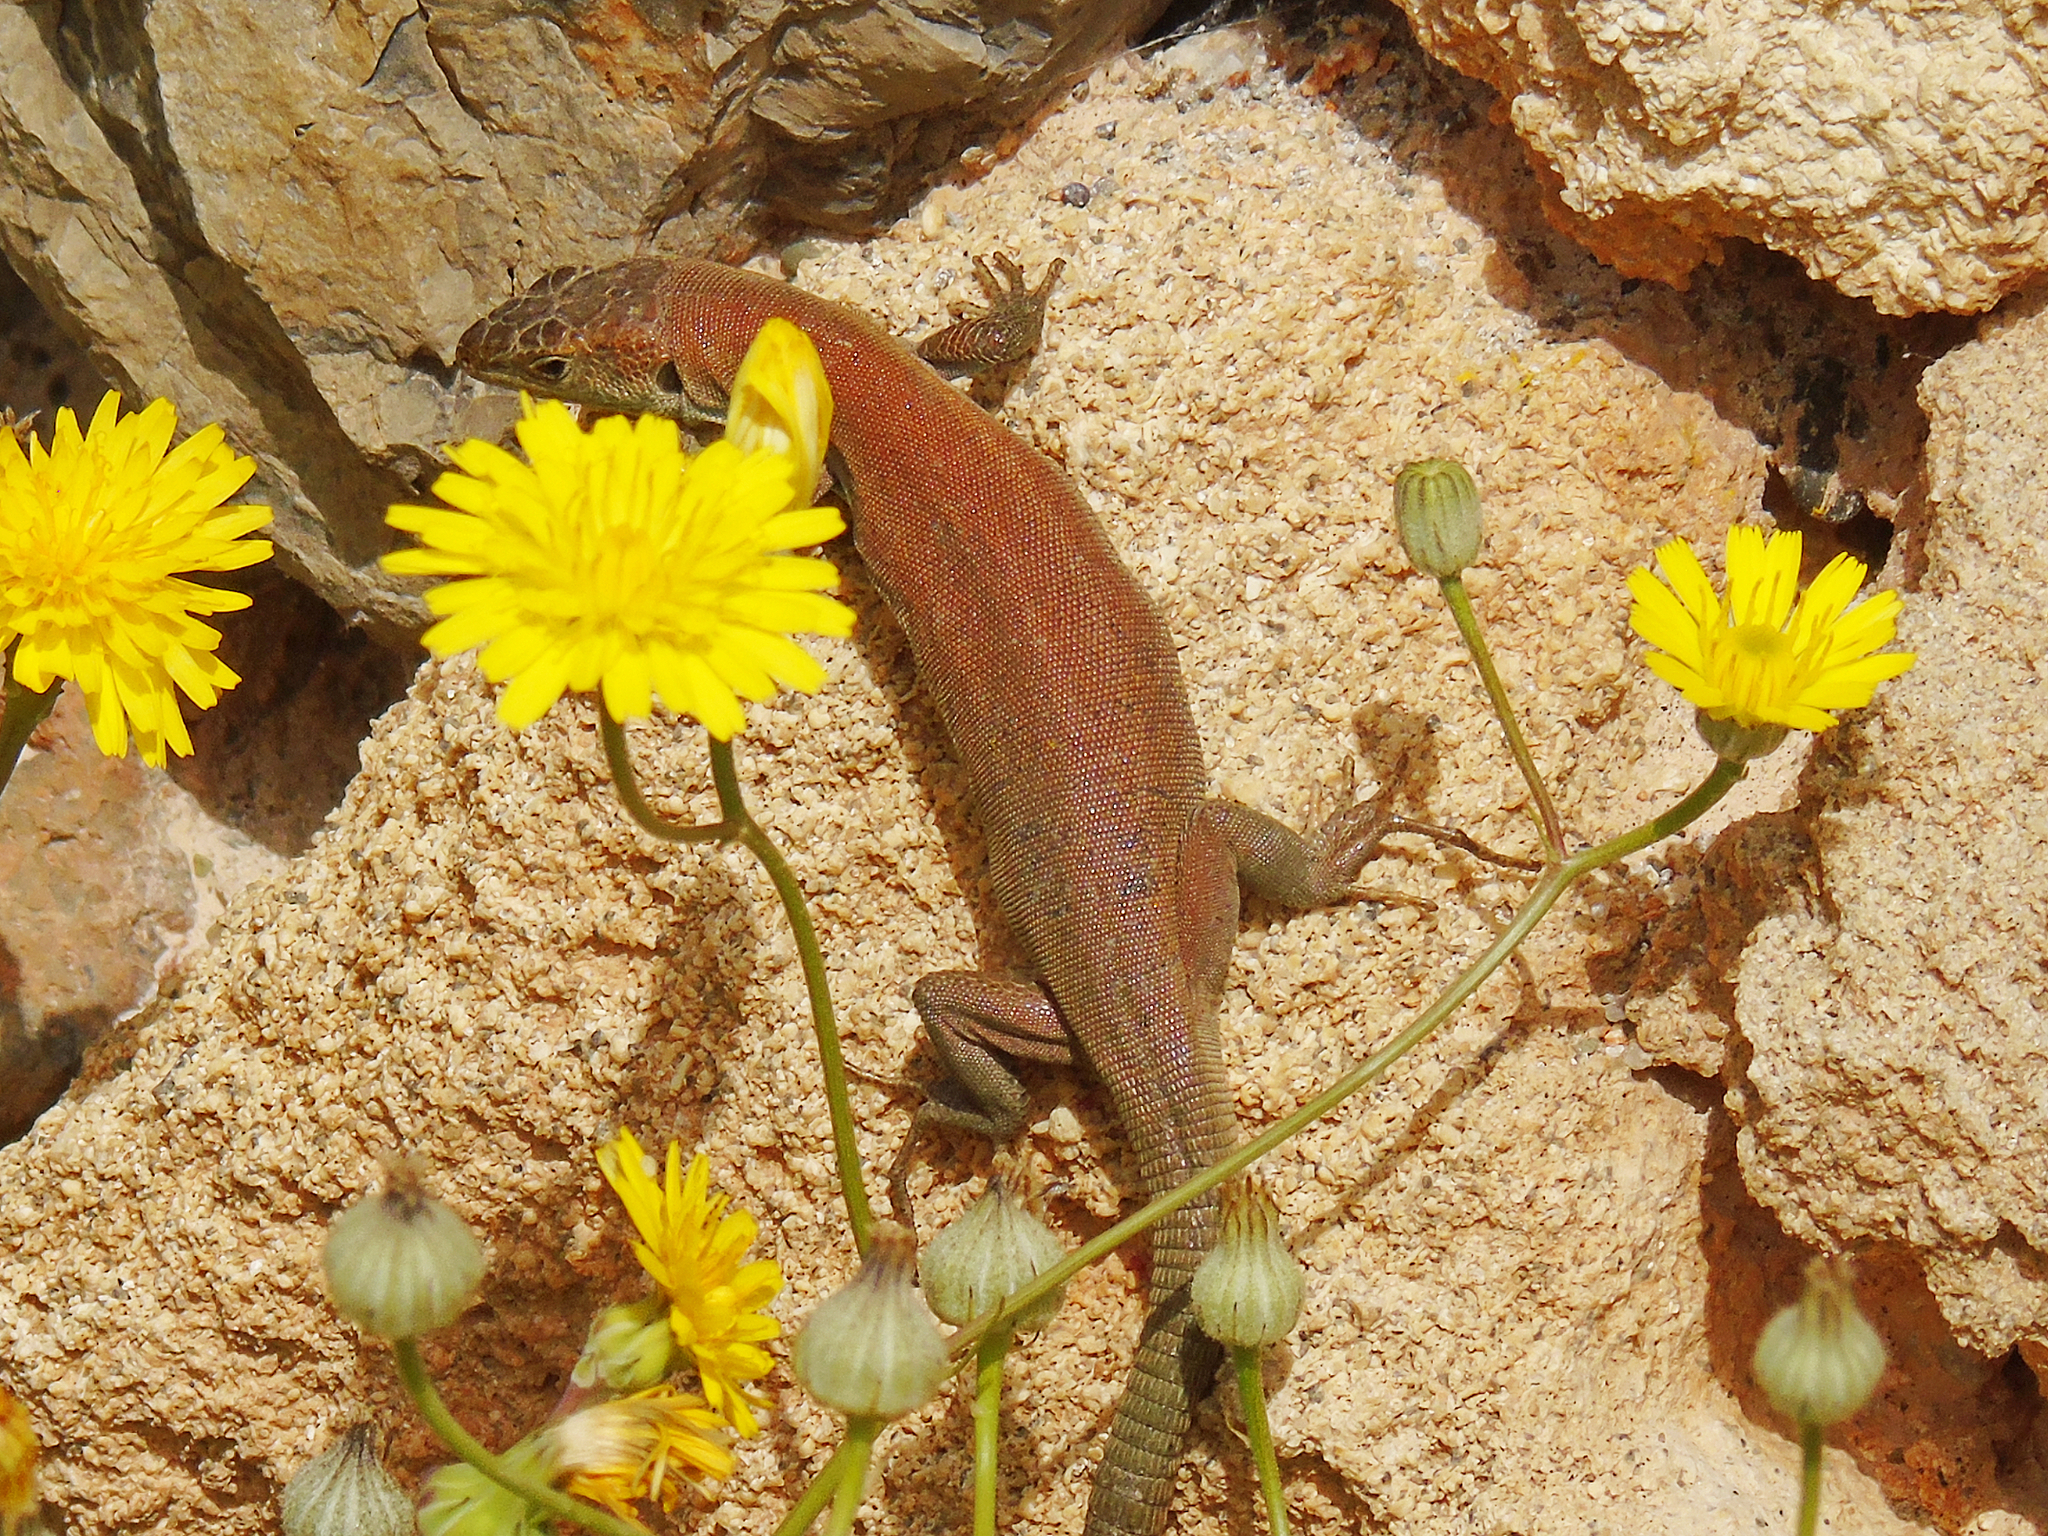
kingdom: Animalia
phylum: Chordata
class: Squamata
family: Lacertidae
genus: Podarcis
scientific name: Podarcis peloponnesiacus
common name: Peloponnese wall lizard
